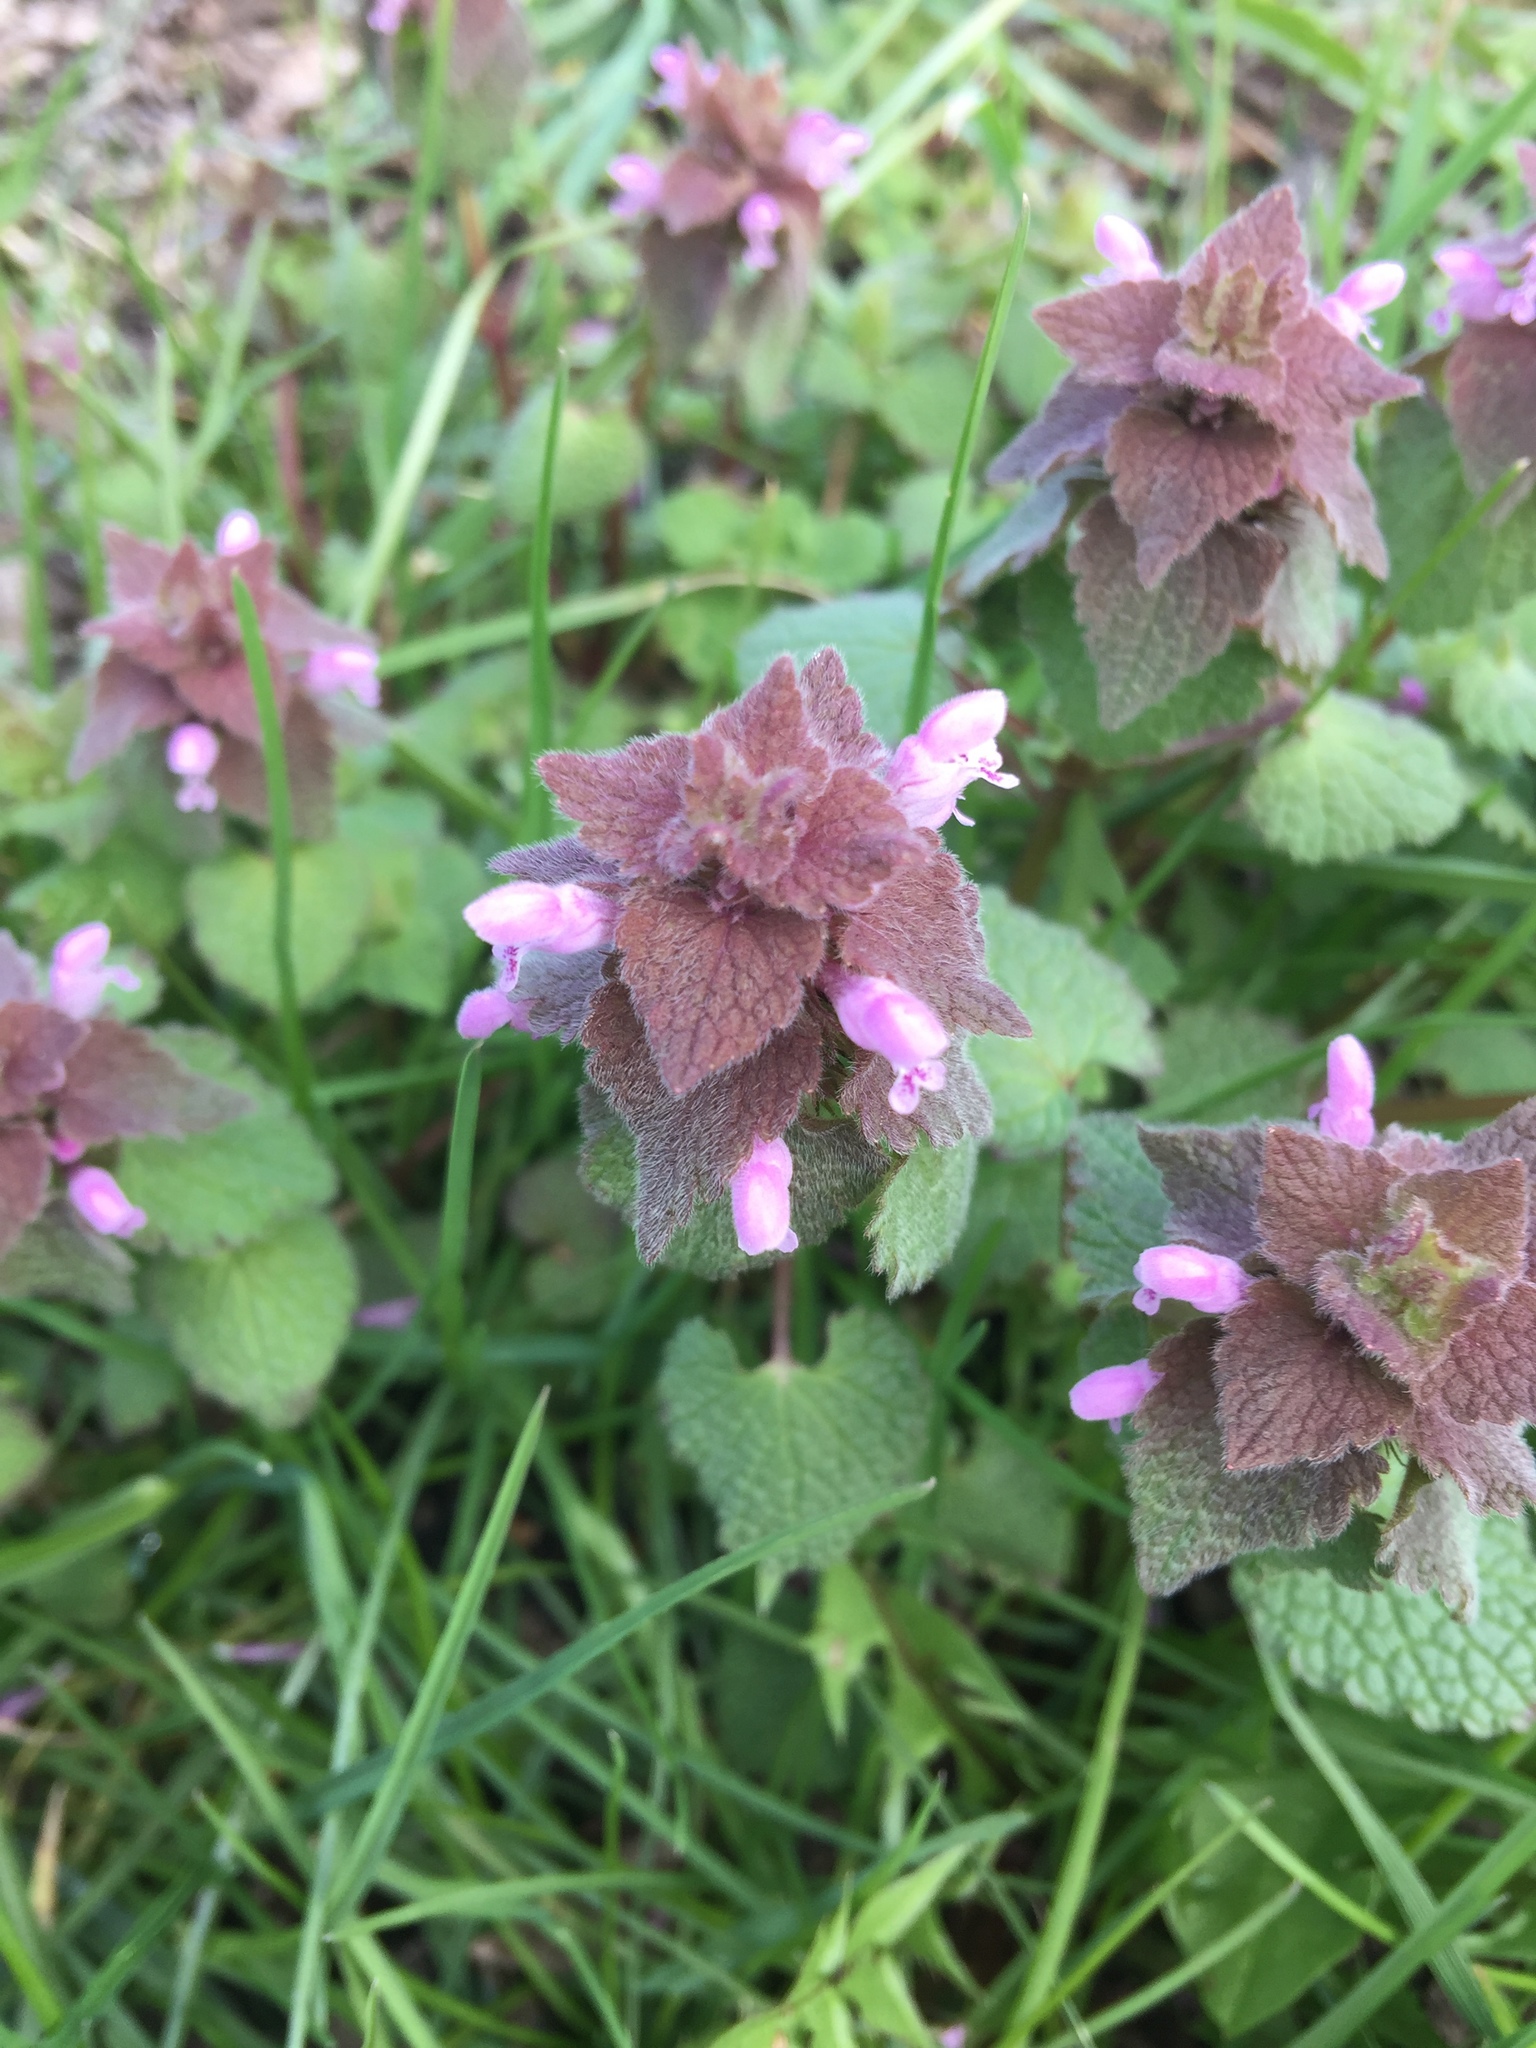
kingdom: Plantae
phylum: Tracheophyta
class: Magnoliopsida
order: Lamiales
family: Lamiaceae
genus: Lamium
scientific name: Lamium purpureum
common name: Red dead-nettle
